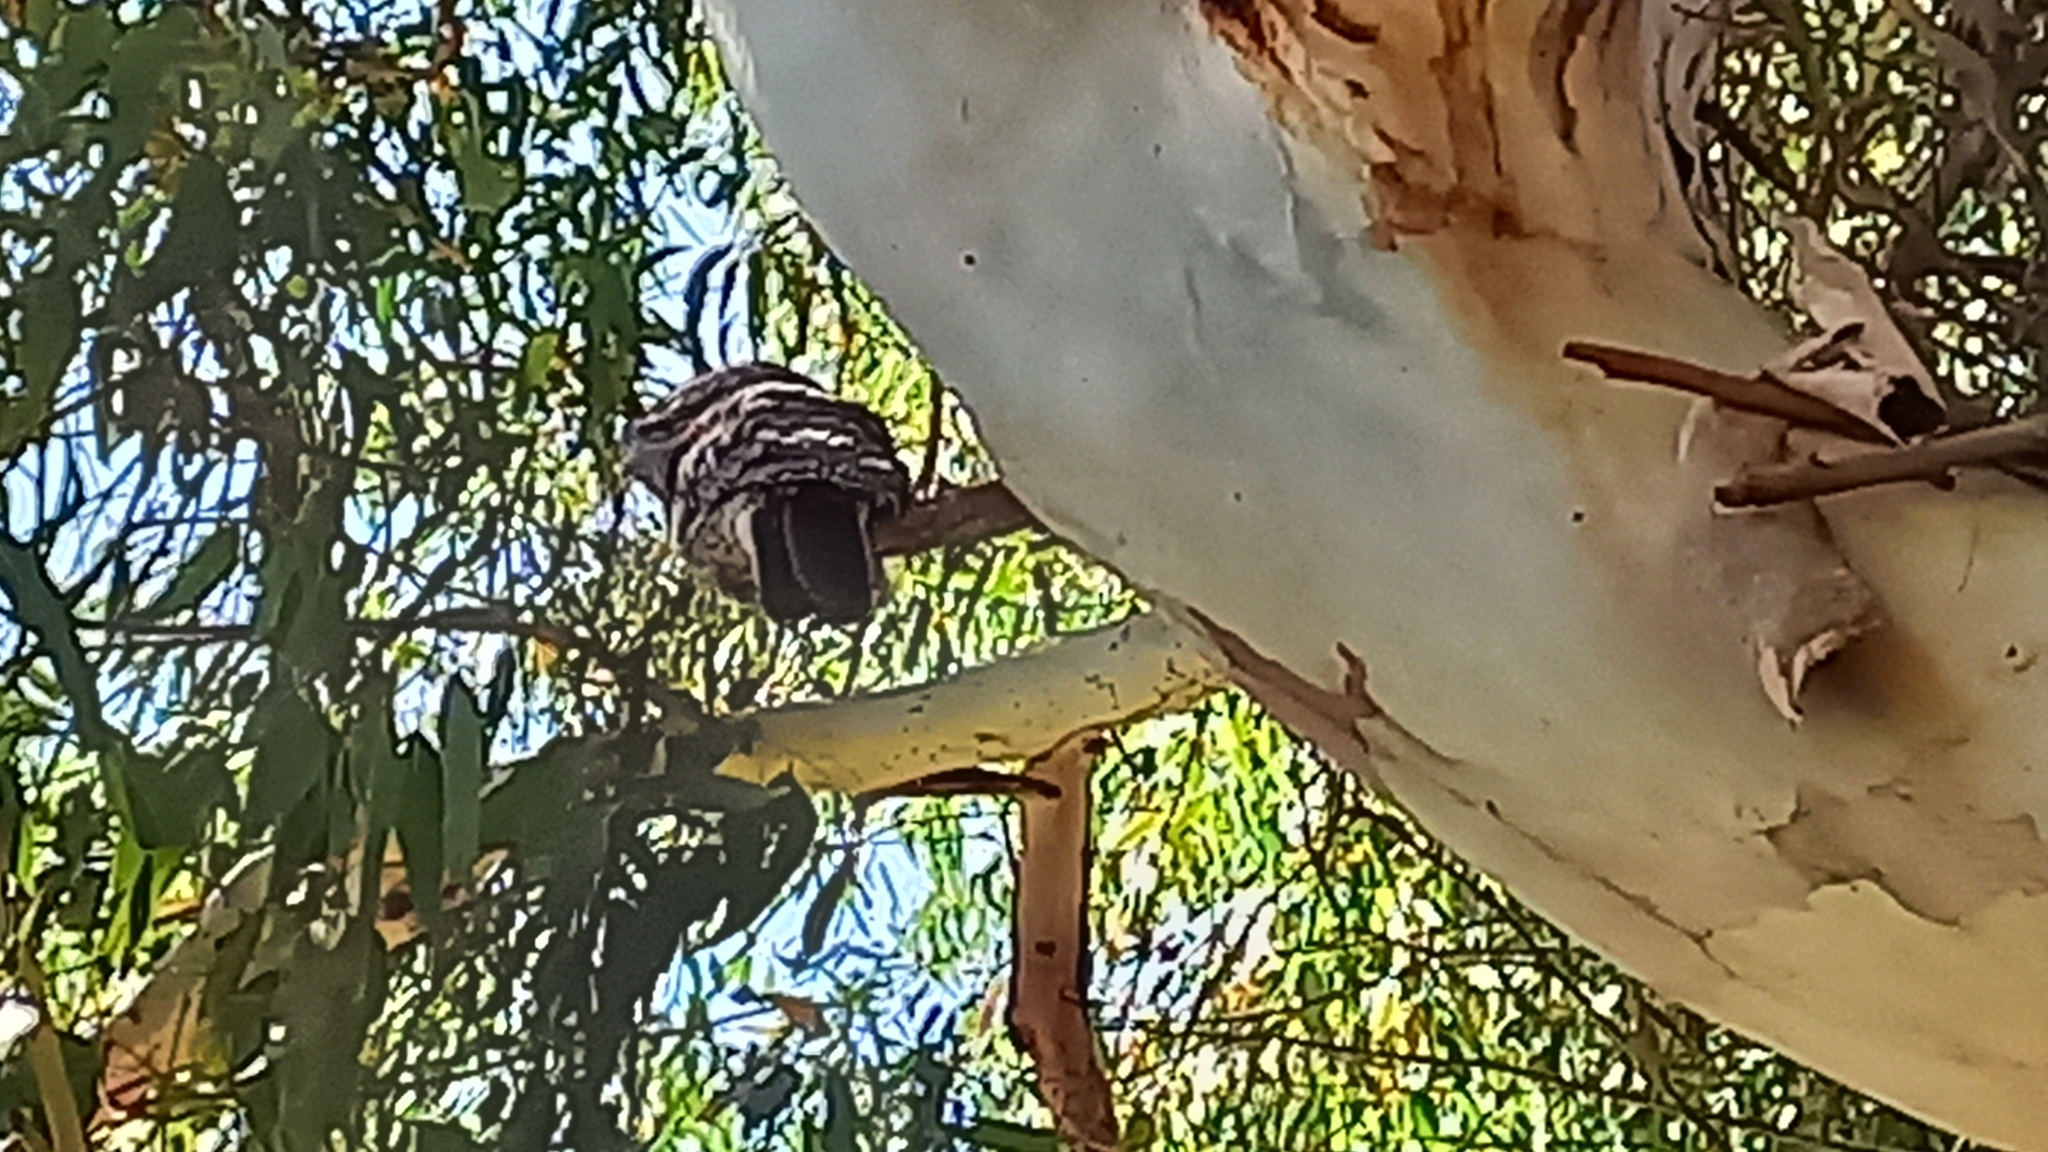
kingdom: Animalia
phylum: Chordata
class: Aves
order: Caprimulgiformes
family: Podargidae
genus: Podargus
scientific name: Podargus strigoides
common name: Tawny frogmouth
